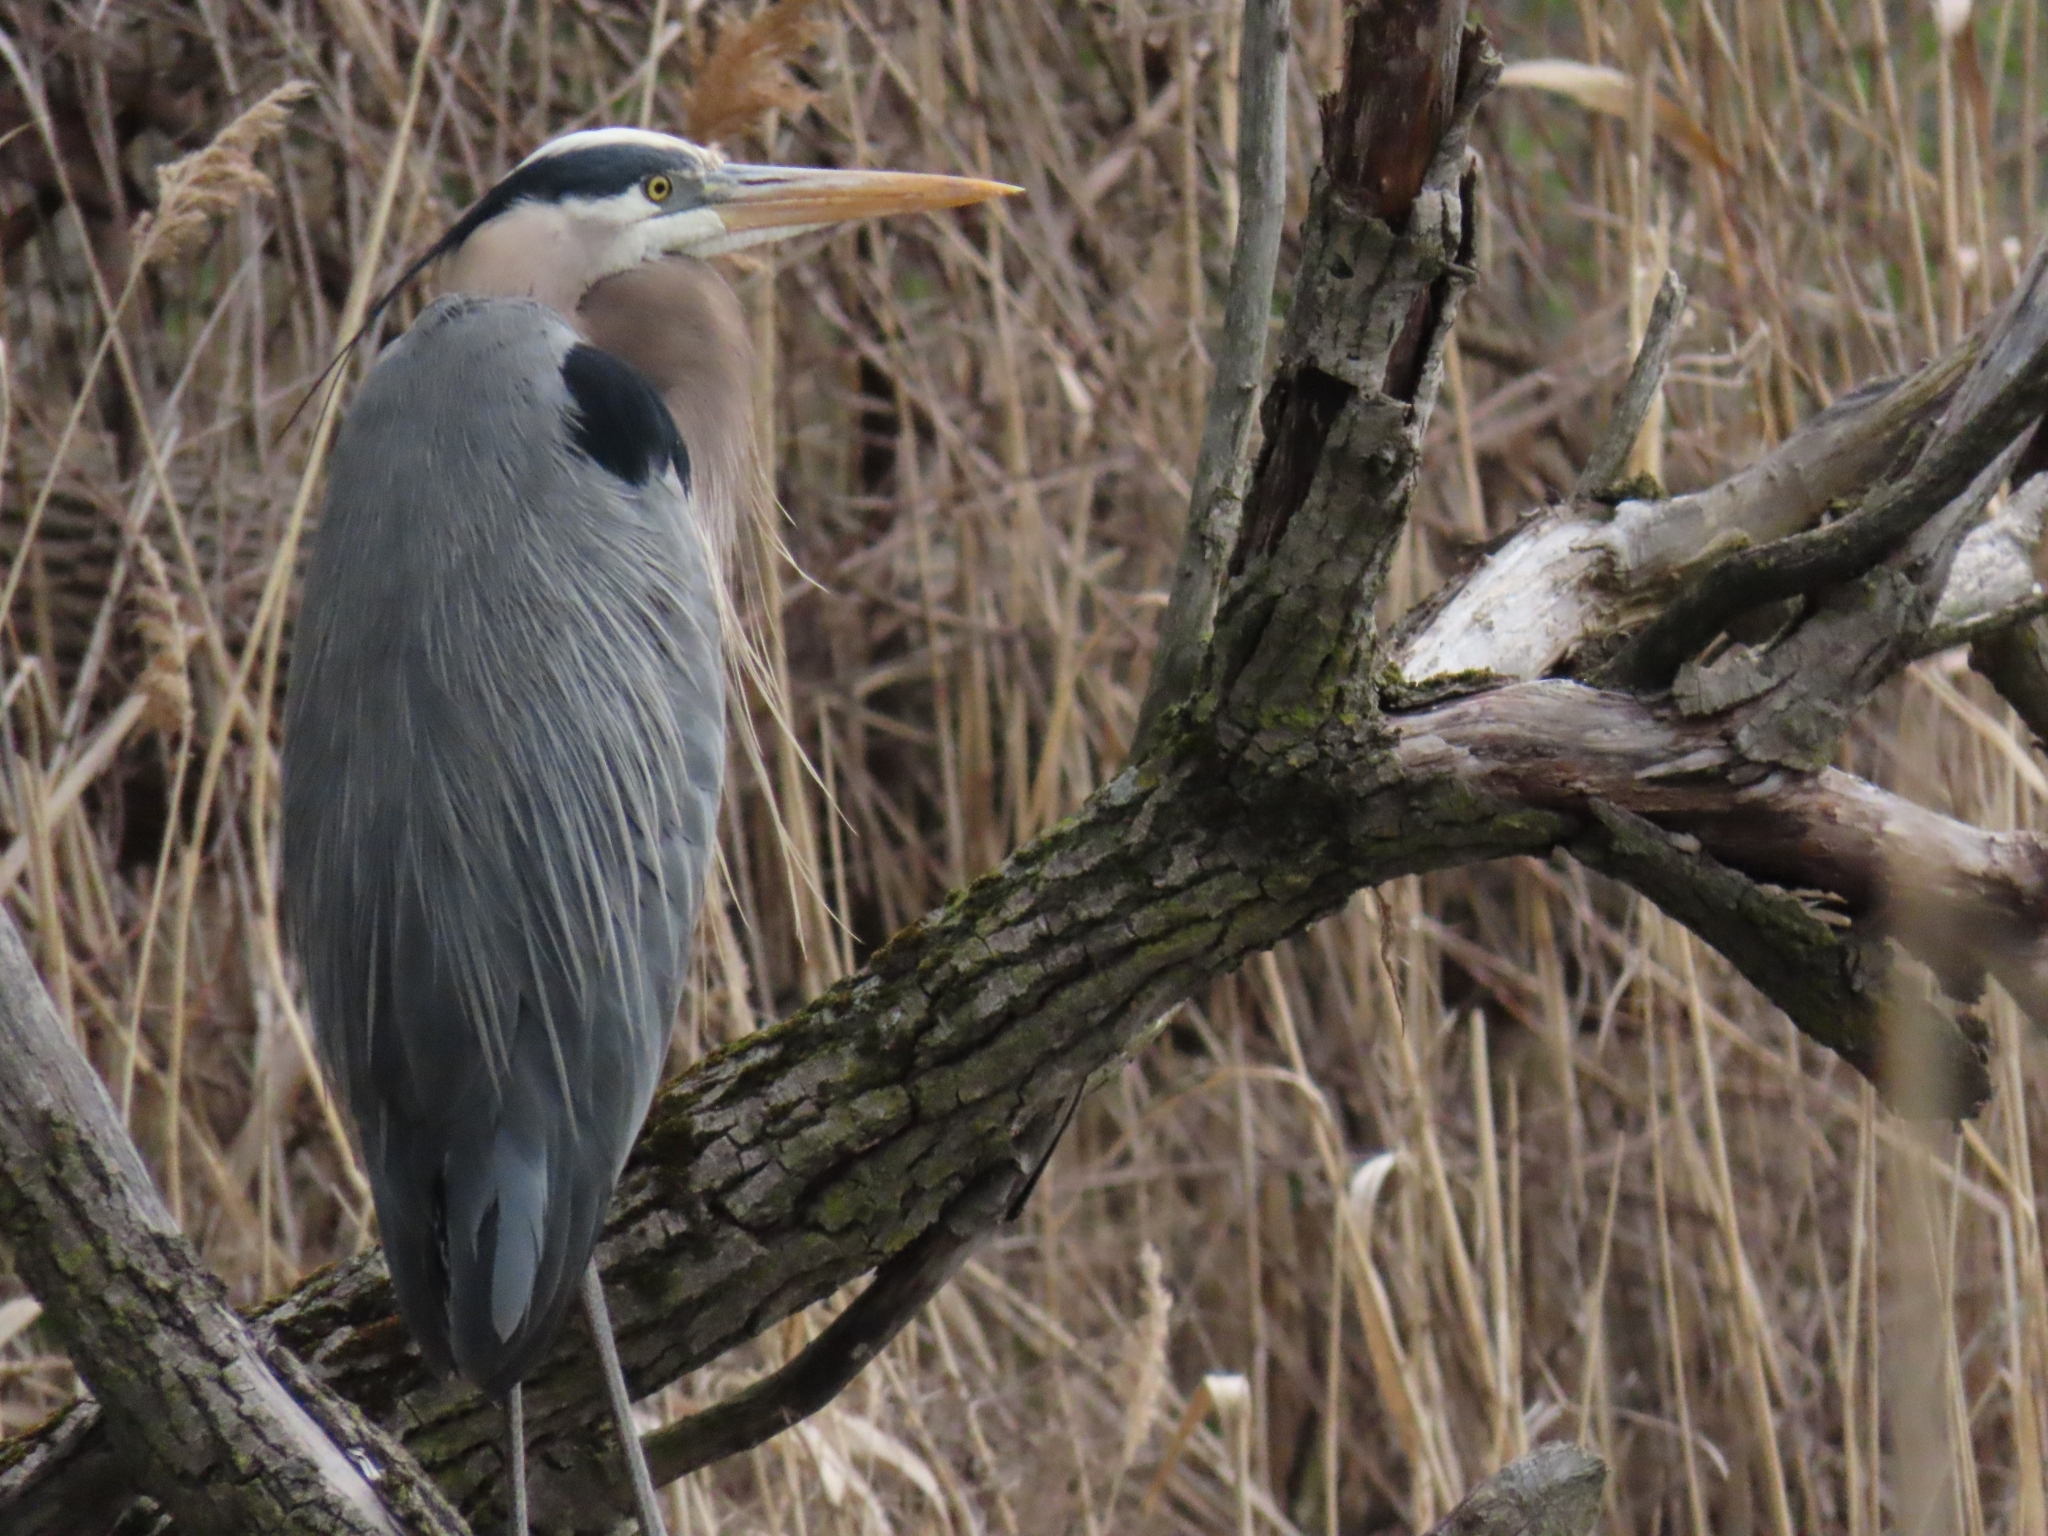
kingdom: Animalia
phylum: Chordata
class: Aves
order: Pelecaniformes
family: Ardeidae
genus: Ardea
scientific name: Ardea herodias
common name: Great blue heron
